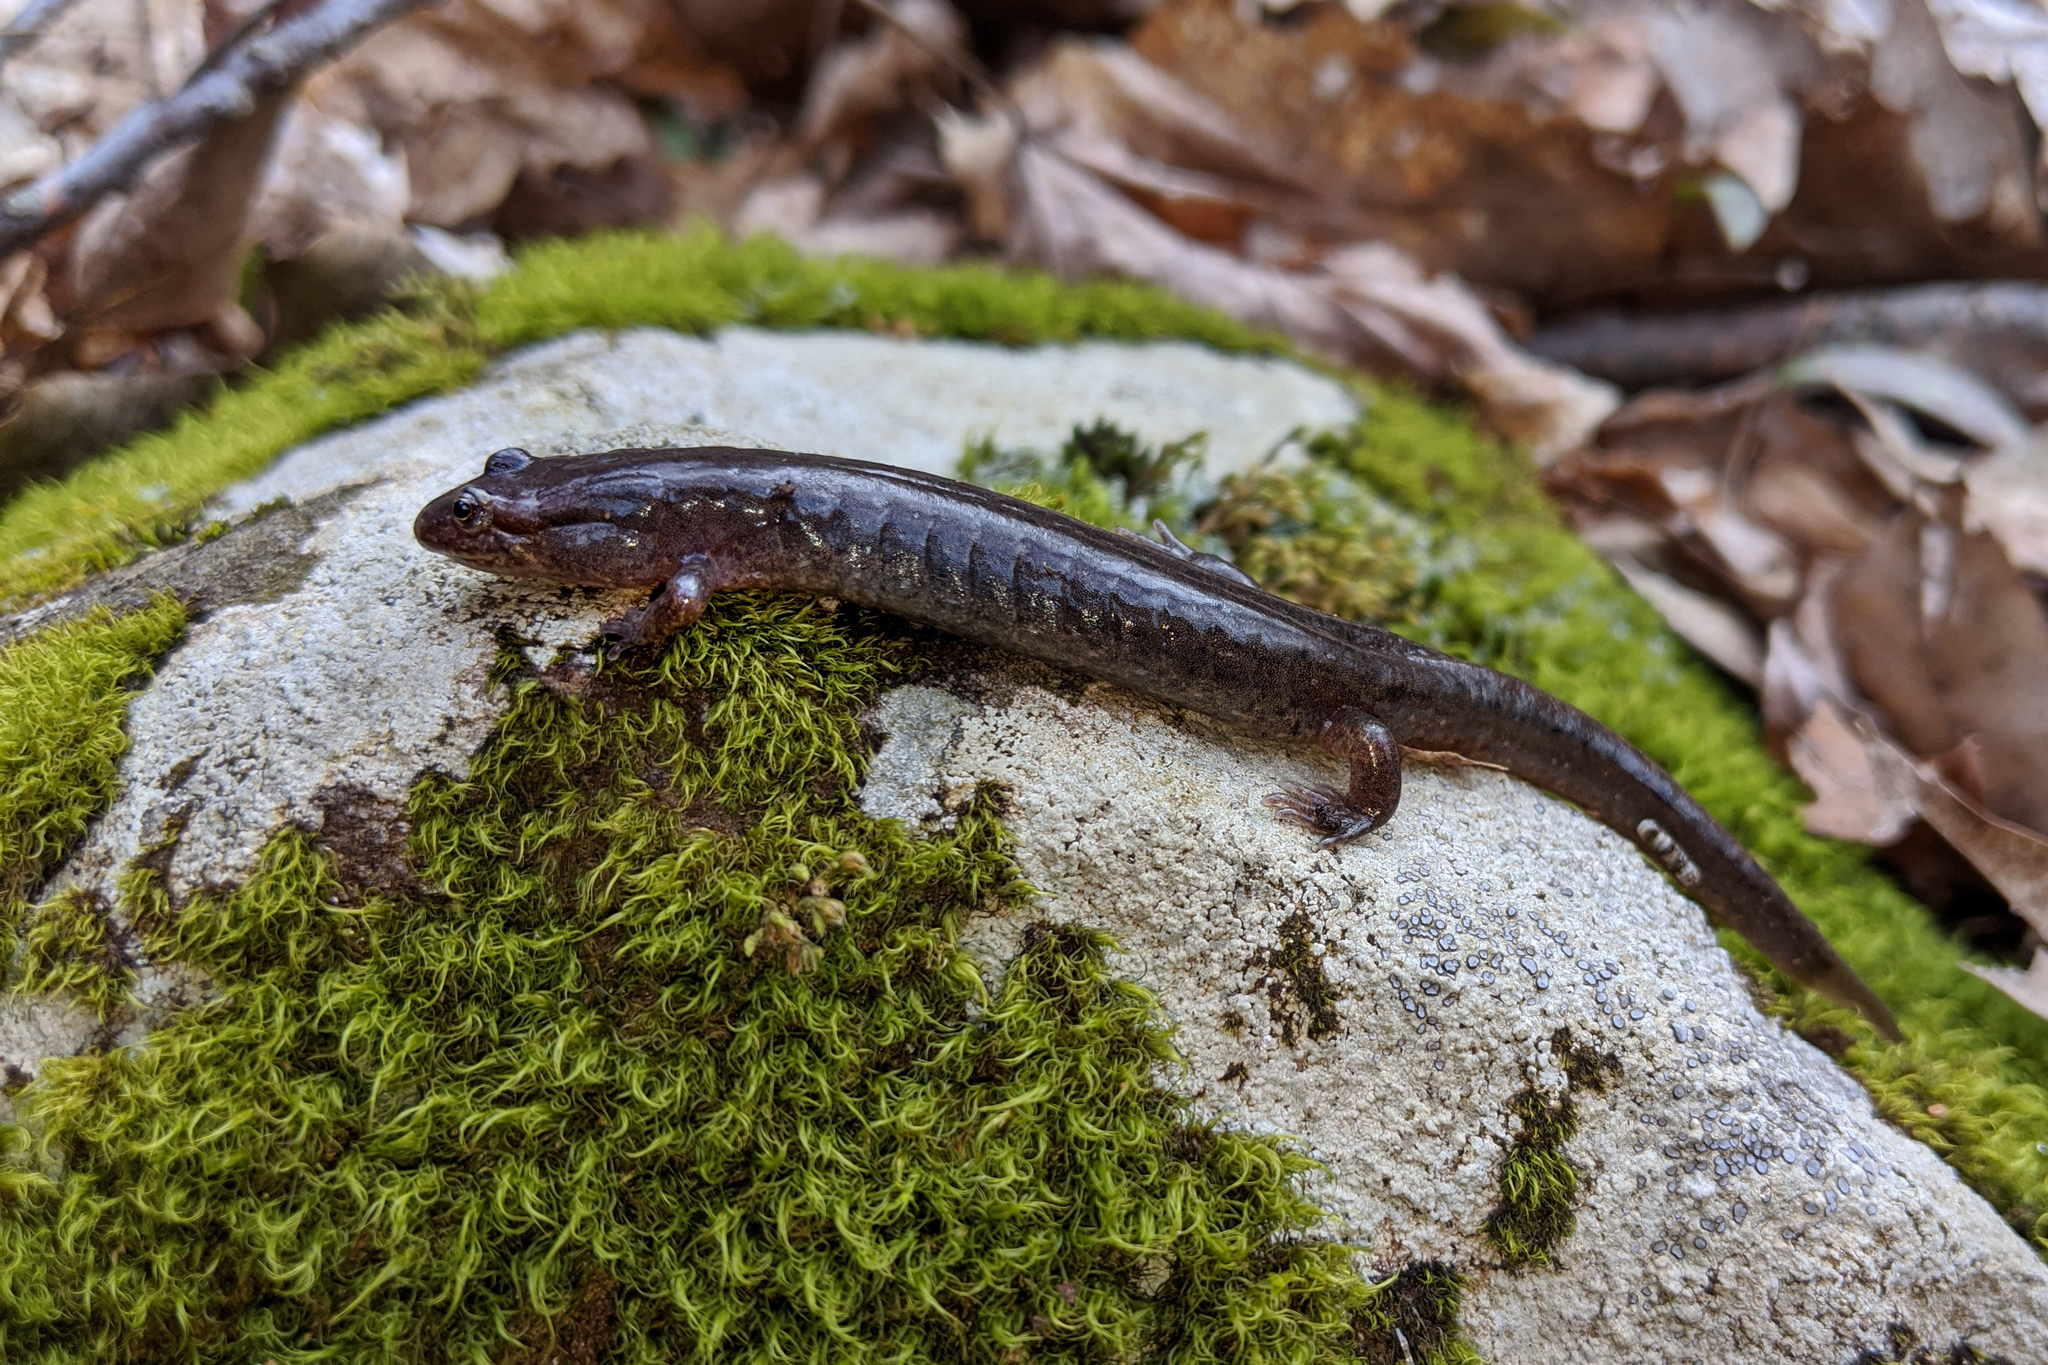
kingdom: Animalia
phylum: Chordata
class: Amphibia
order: Caudata
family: Plethodontidae
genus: Desmognathus
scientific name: Desmognathus fuscus
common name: Northern dusky salamander
